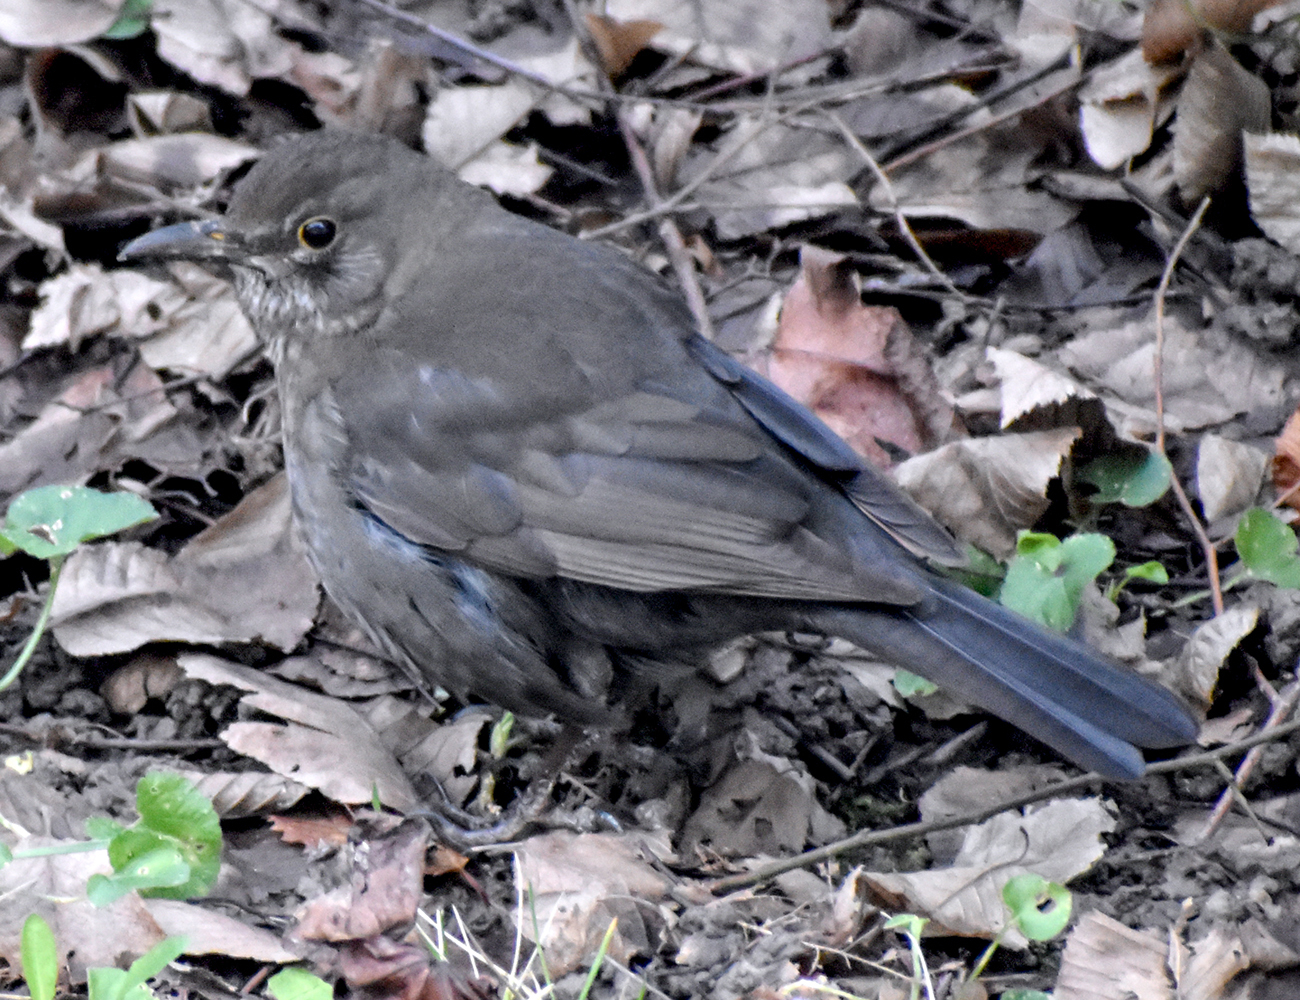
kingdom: Animalia
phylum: Chordata
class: Aves
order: Passeriformes
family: Turdidae
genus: Turdus
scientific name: Turdus merula
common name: Common blackbird
